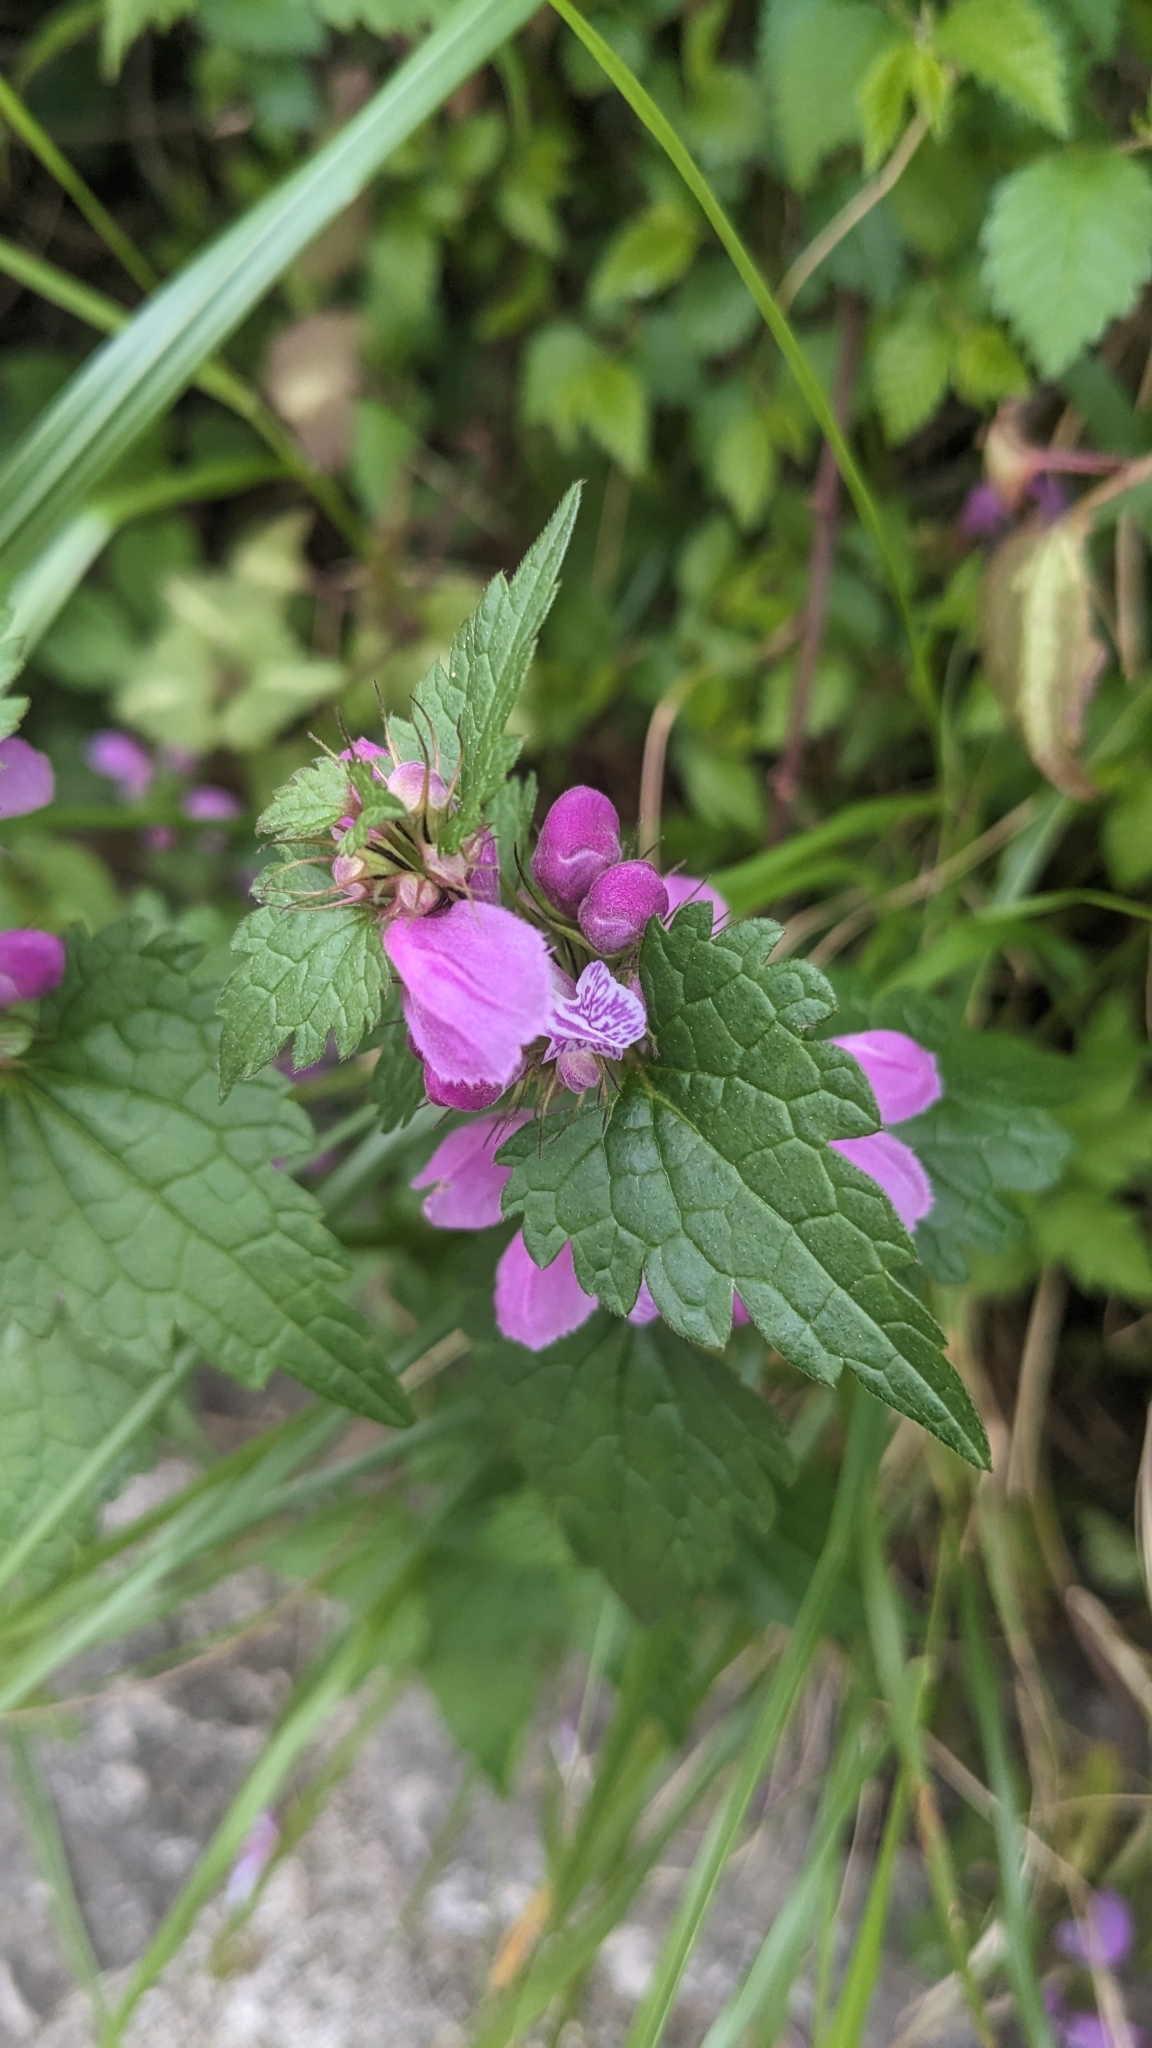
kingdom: Plantae
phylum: Tracheophyta
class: Magnoliopsida
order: Lamiales
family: Lamiaceae
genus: Lamium
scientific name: Lamium maculatum
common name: Spotted dead-nettle
